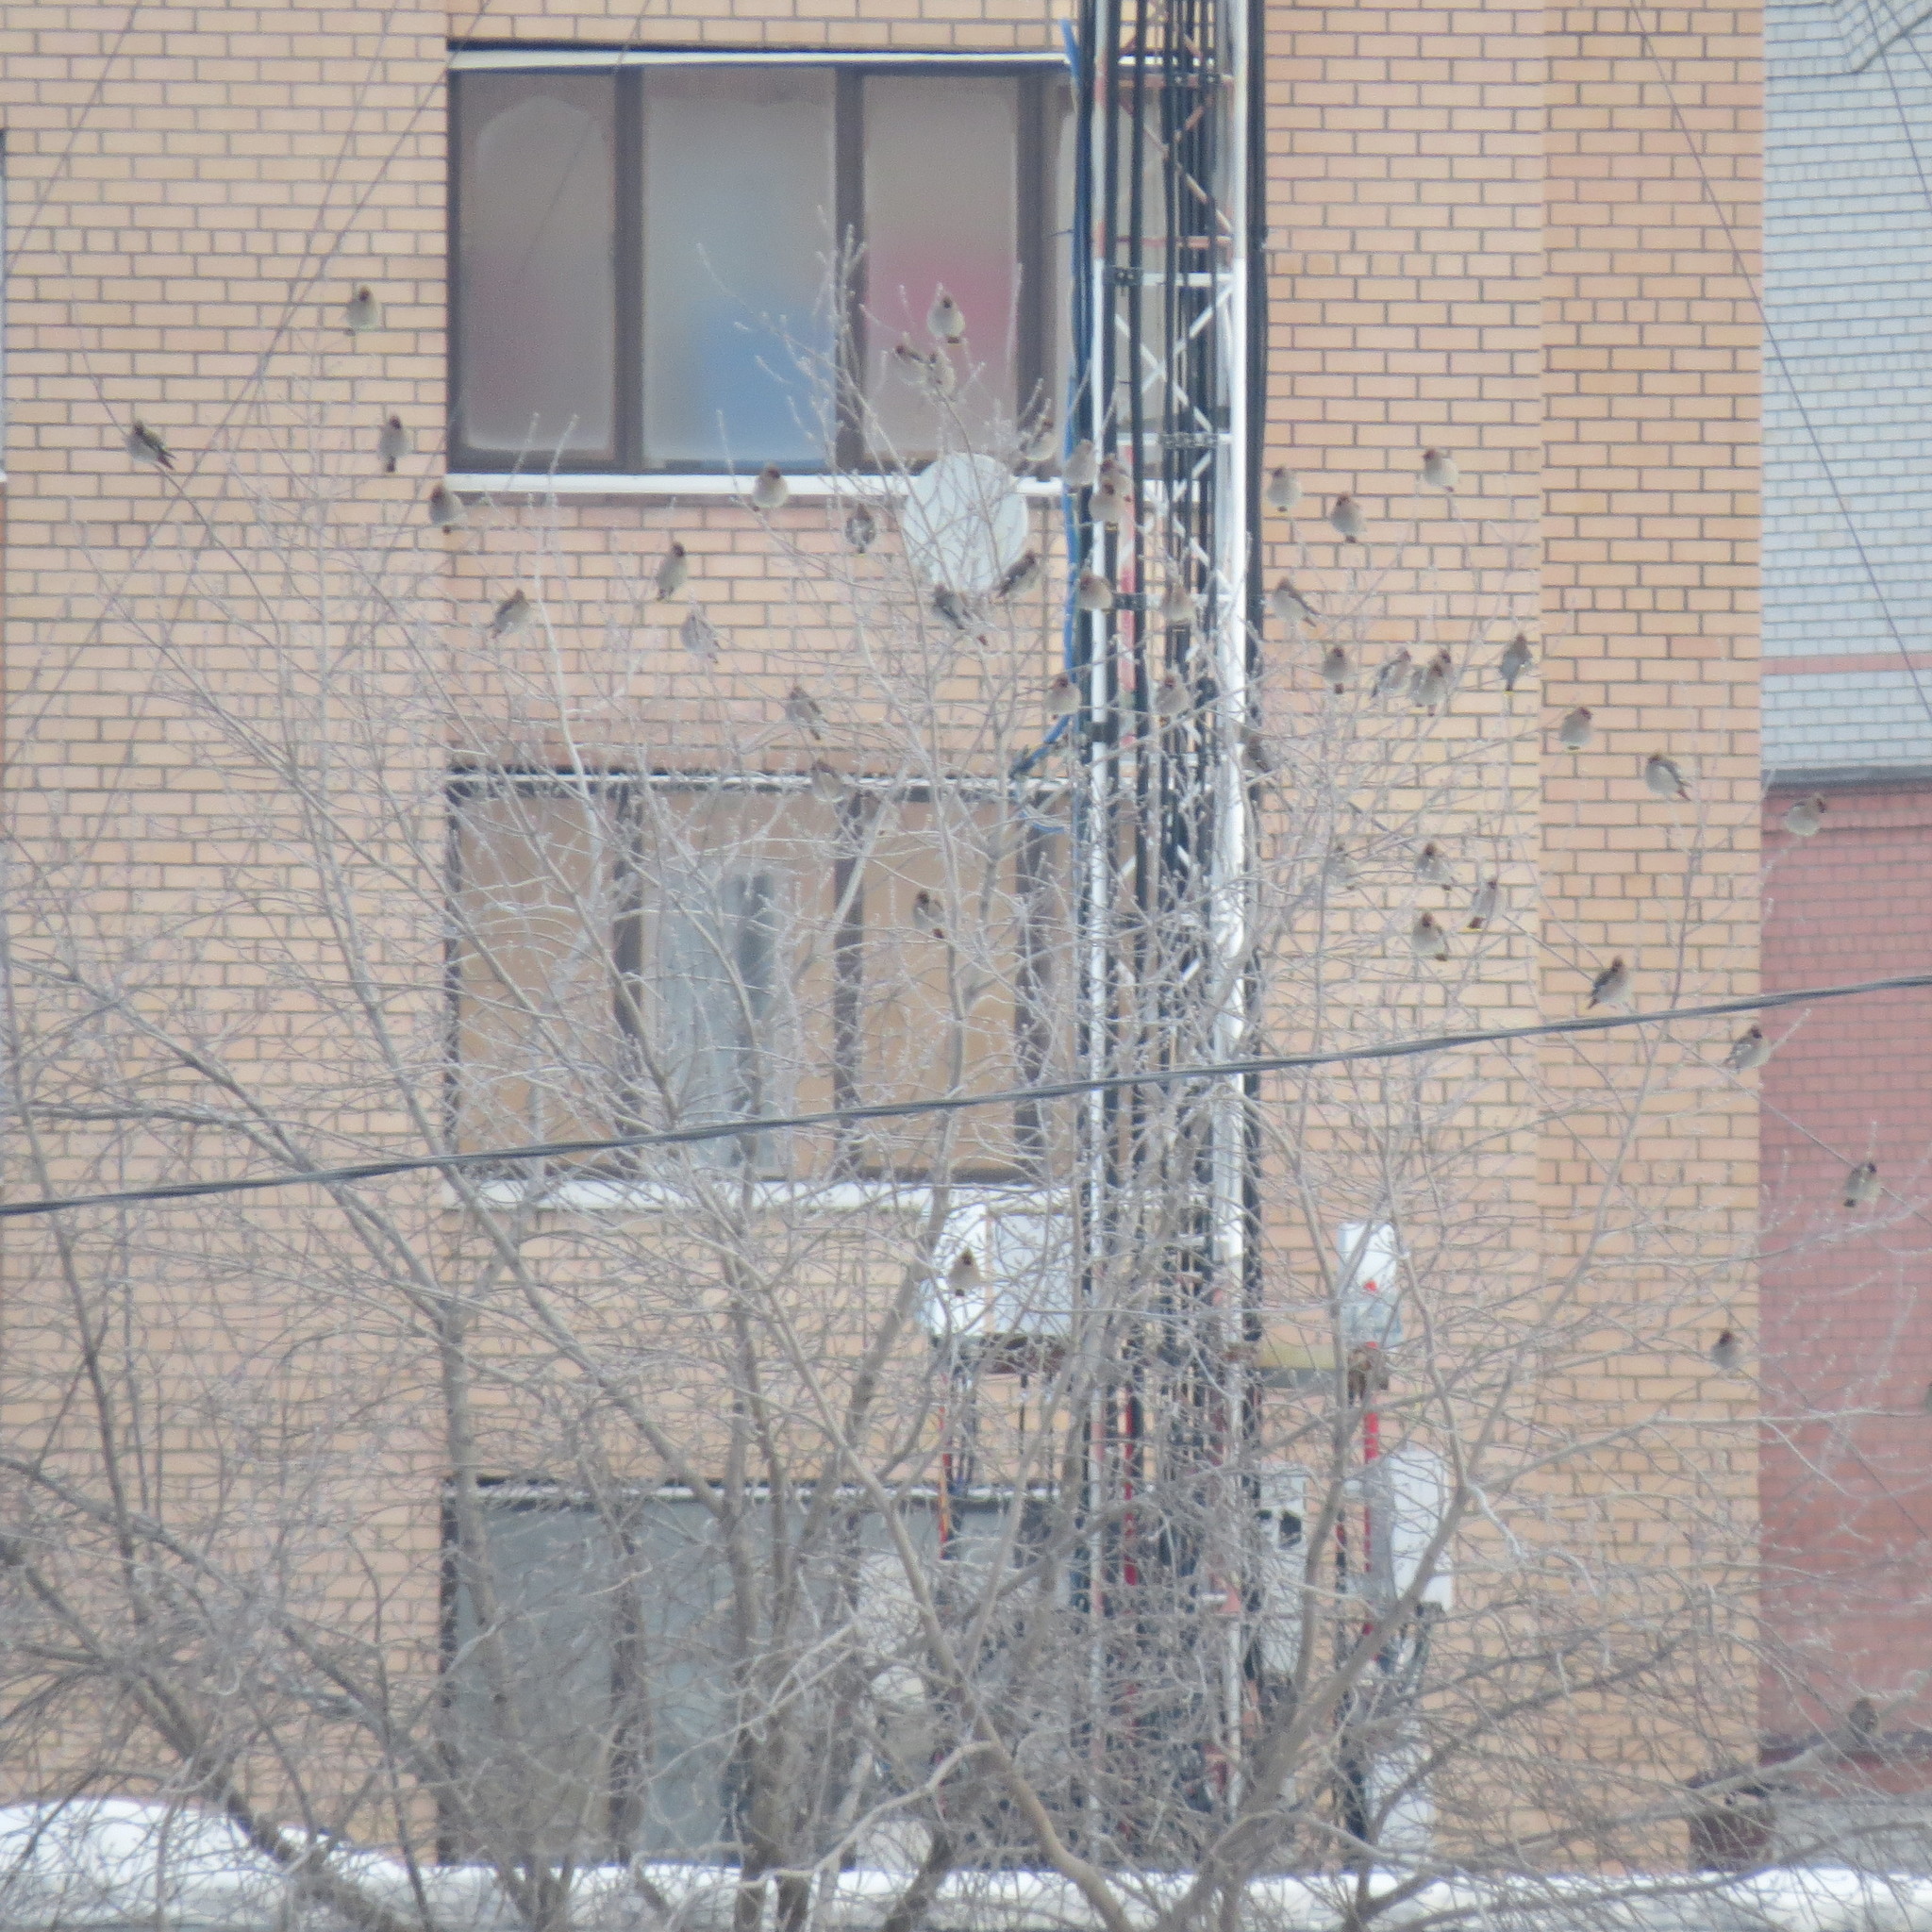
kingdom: Animalia
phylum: Chordata
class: Aves
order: Passeriformes
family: Bombycillidae
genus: Bombycilla
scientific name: Bombycilla garrulus
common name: Bohemian waxwing
